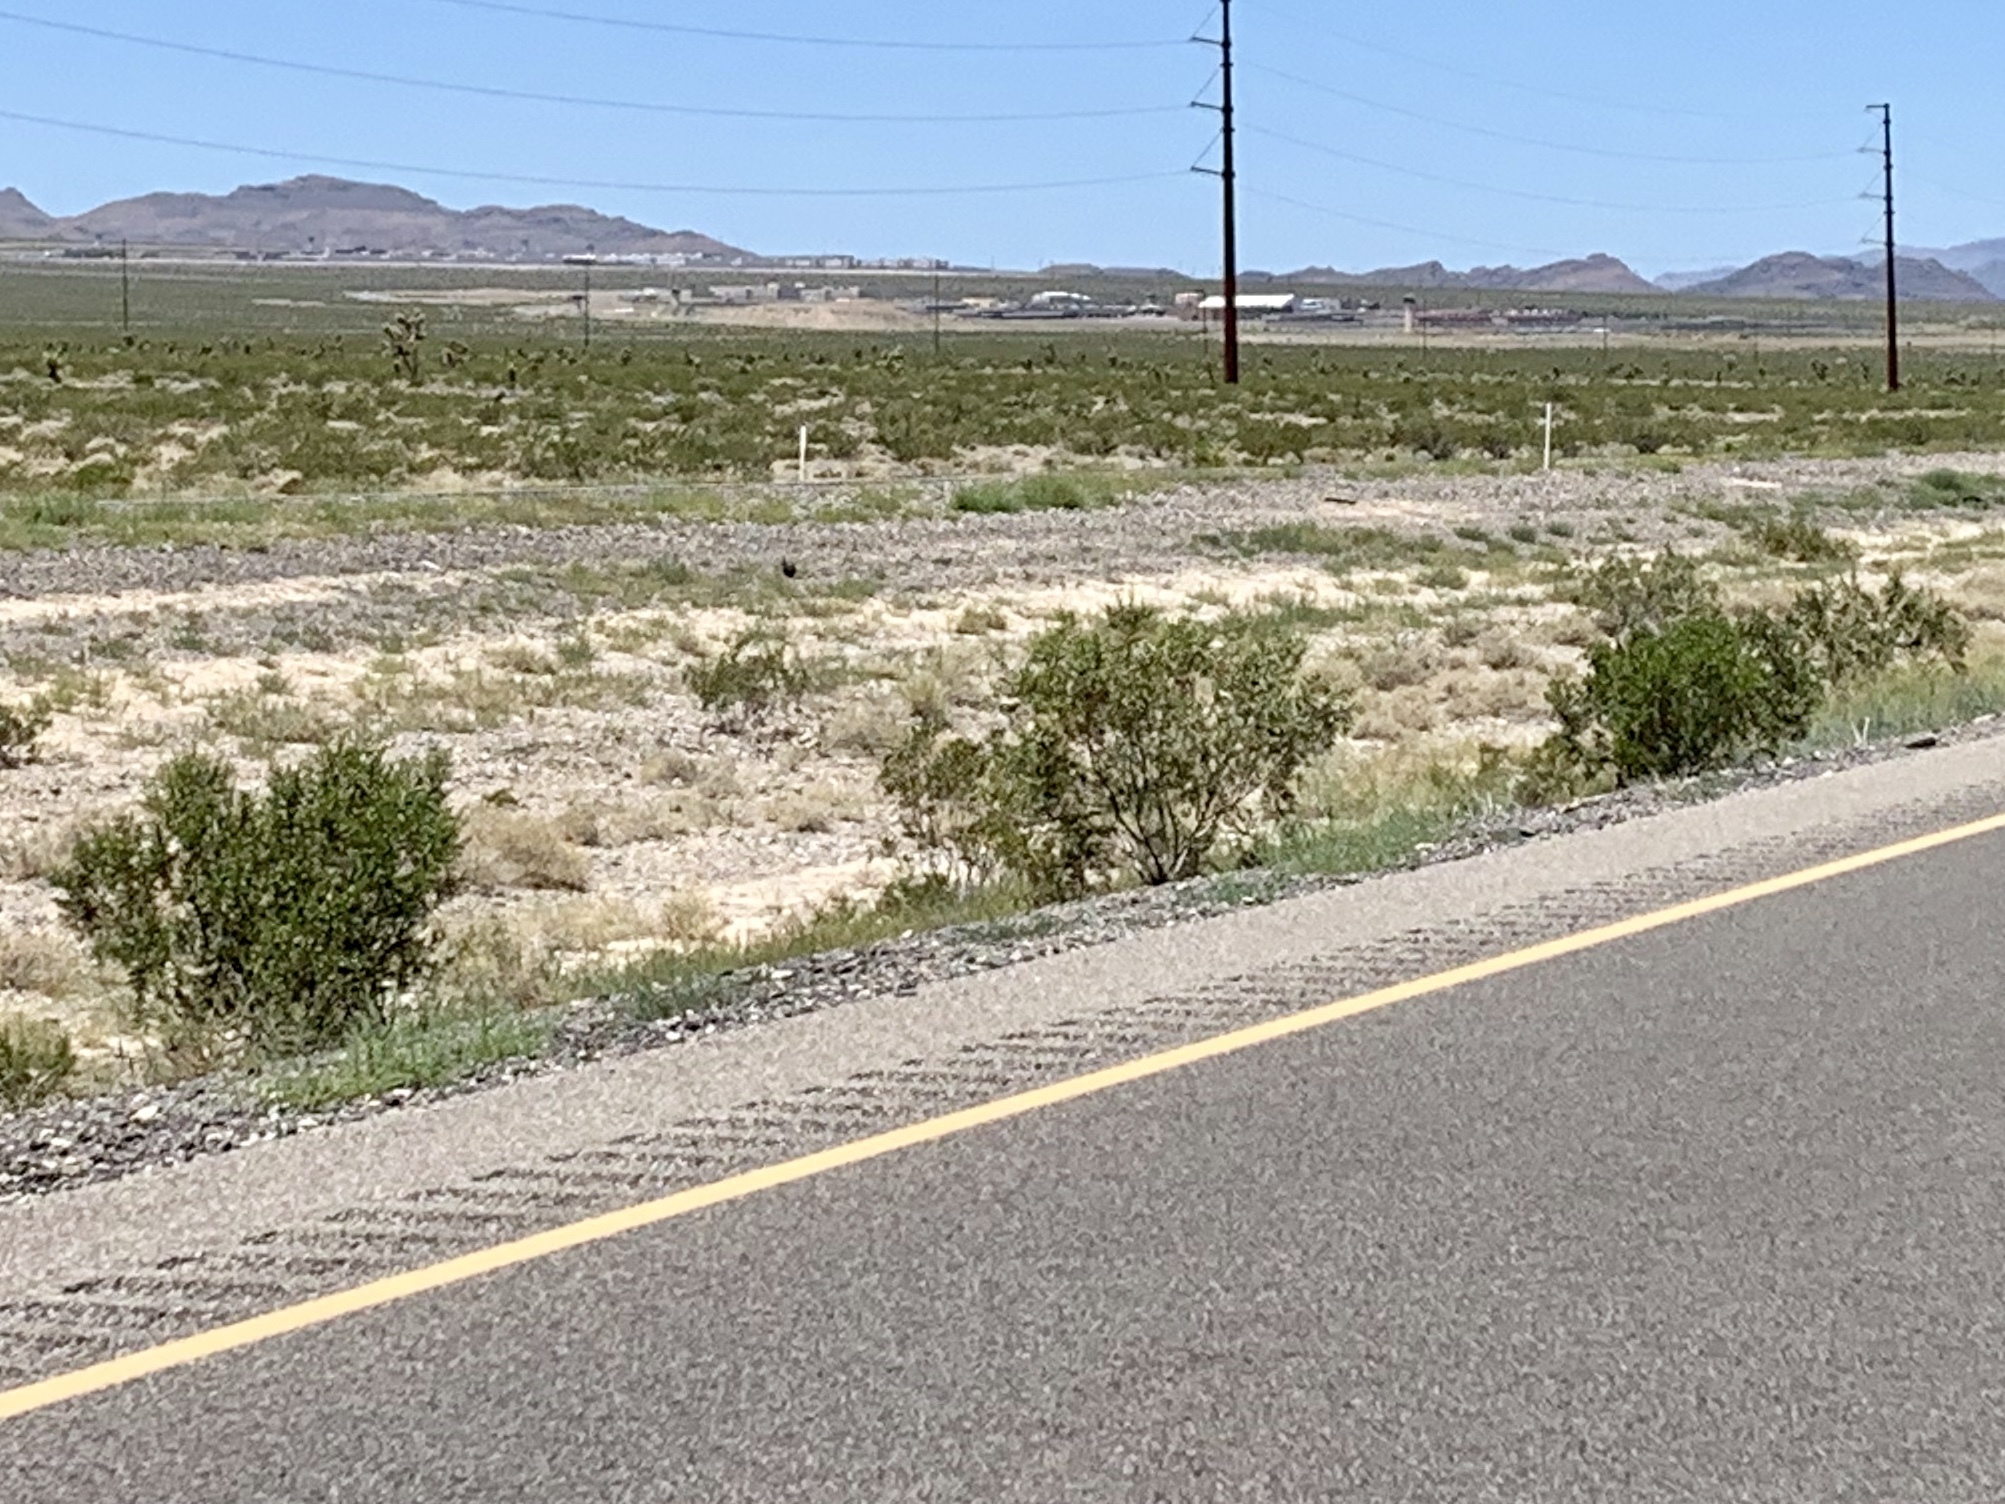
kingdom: Plantae
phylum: Tracheophyta
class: Magnoliopsida
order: Zygophyllales
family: Zygophyllaceae
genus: Larrea
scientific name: Larrea tridentata
